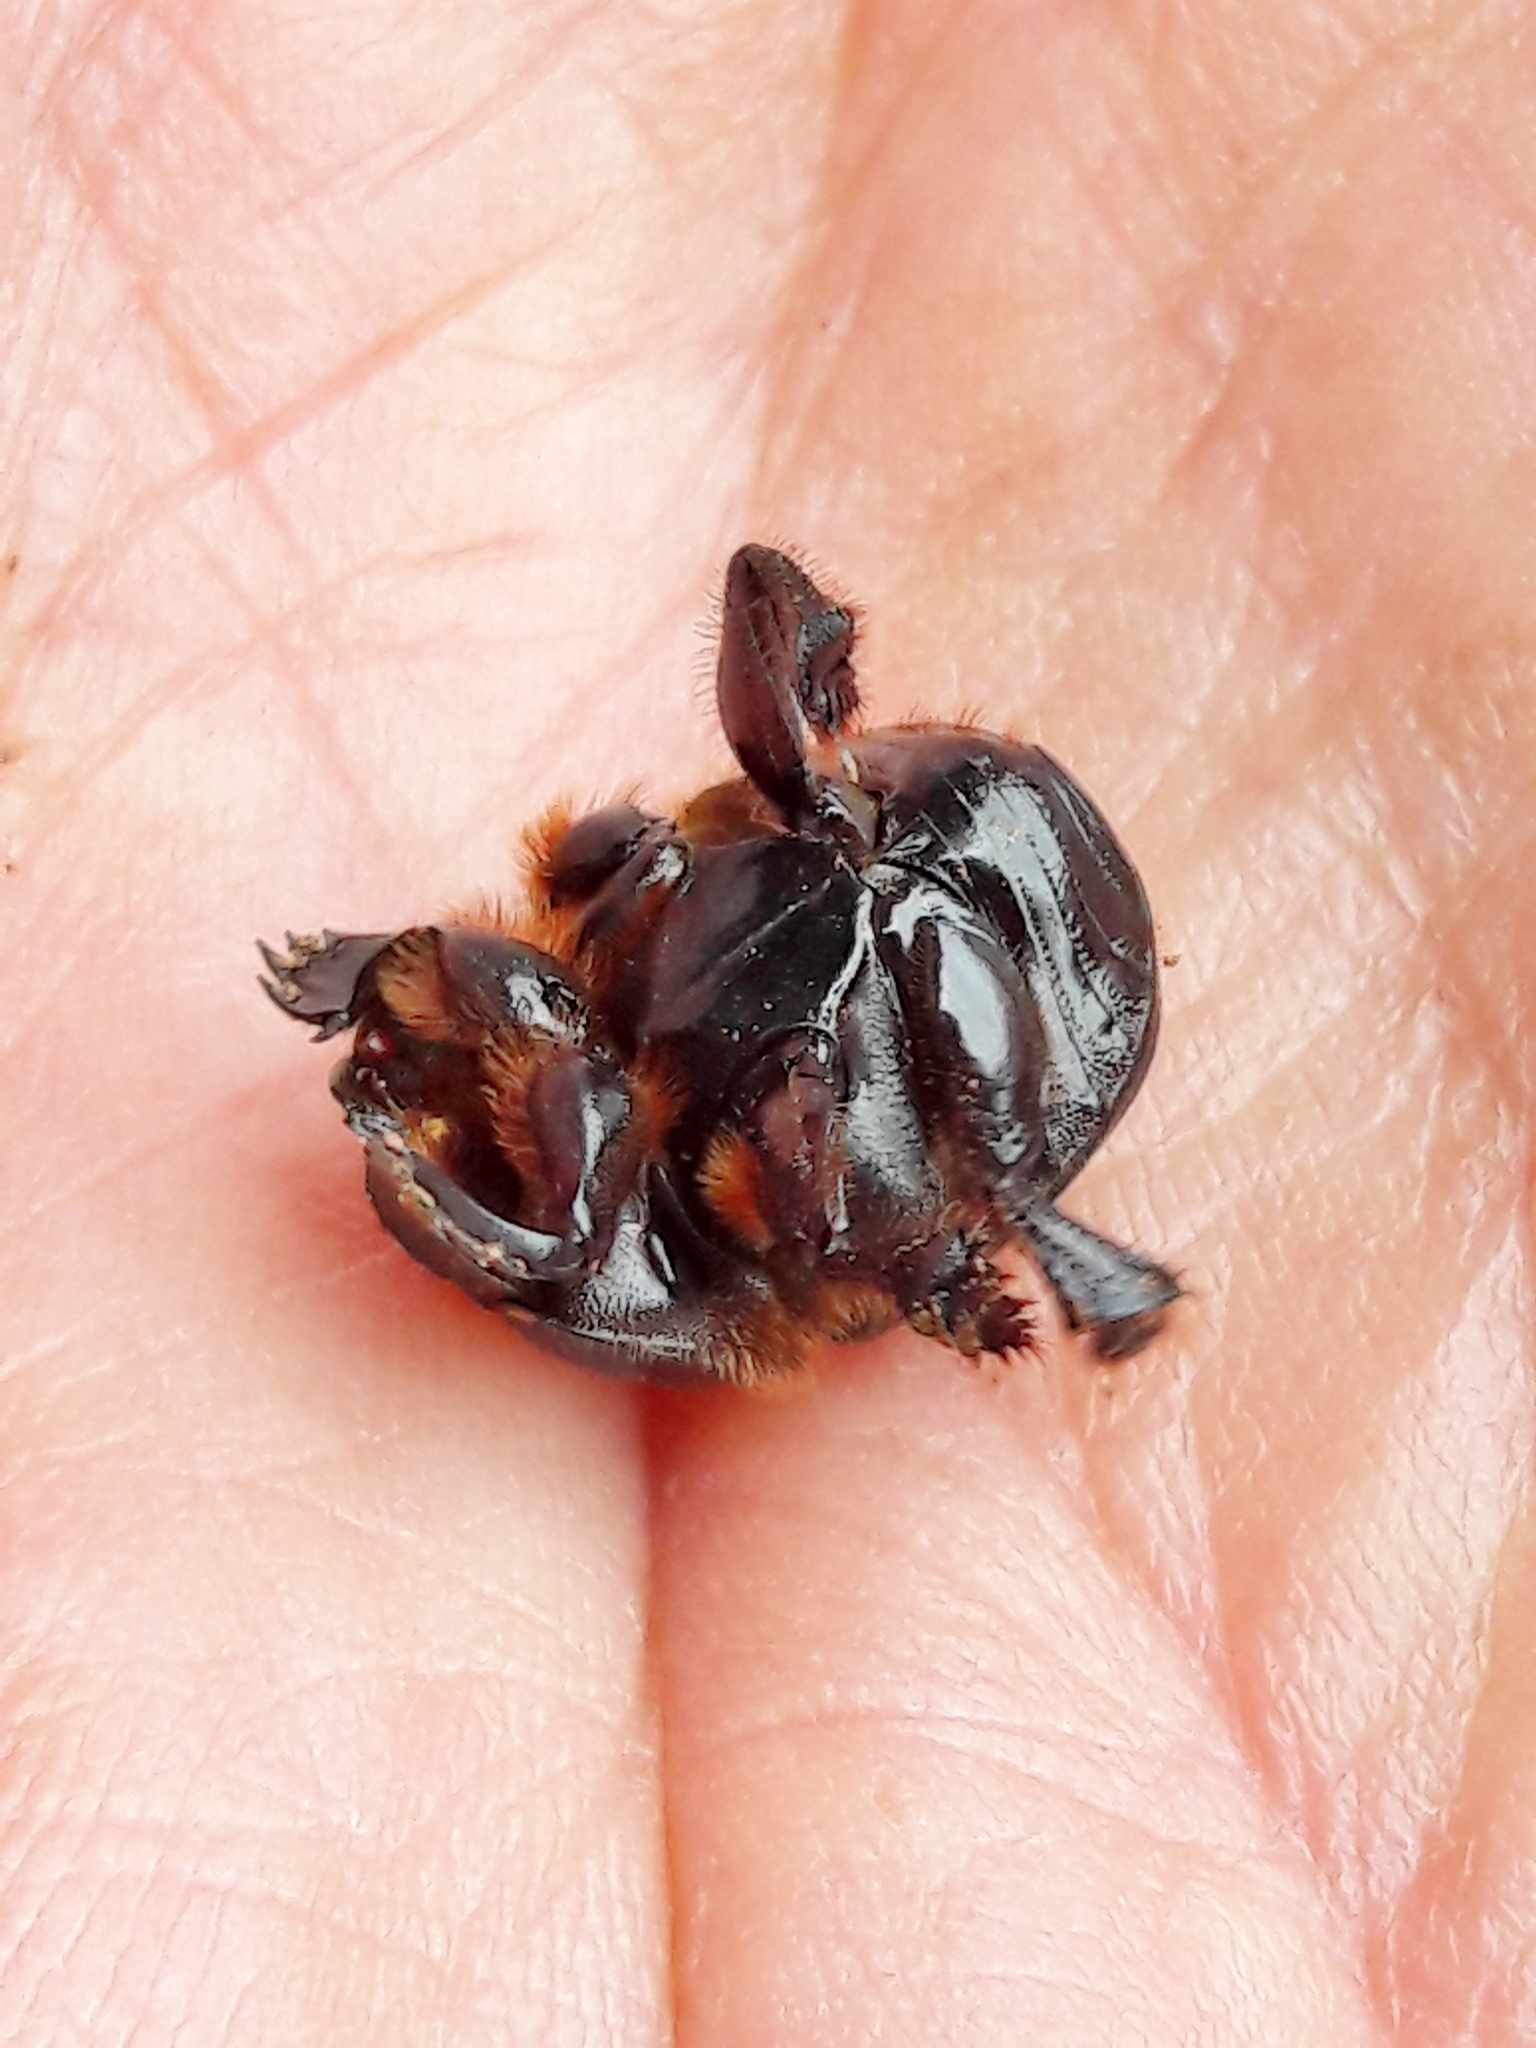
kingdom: Animalia
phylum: Arthropoda
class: Insecta
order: Coleoptera
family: Scarabaeidae
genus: Dendropaemon
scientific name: Dendropaemon convexus
